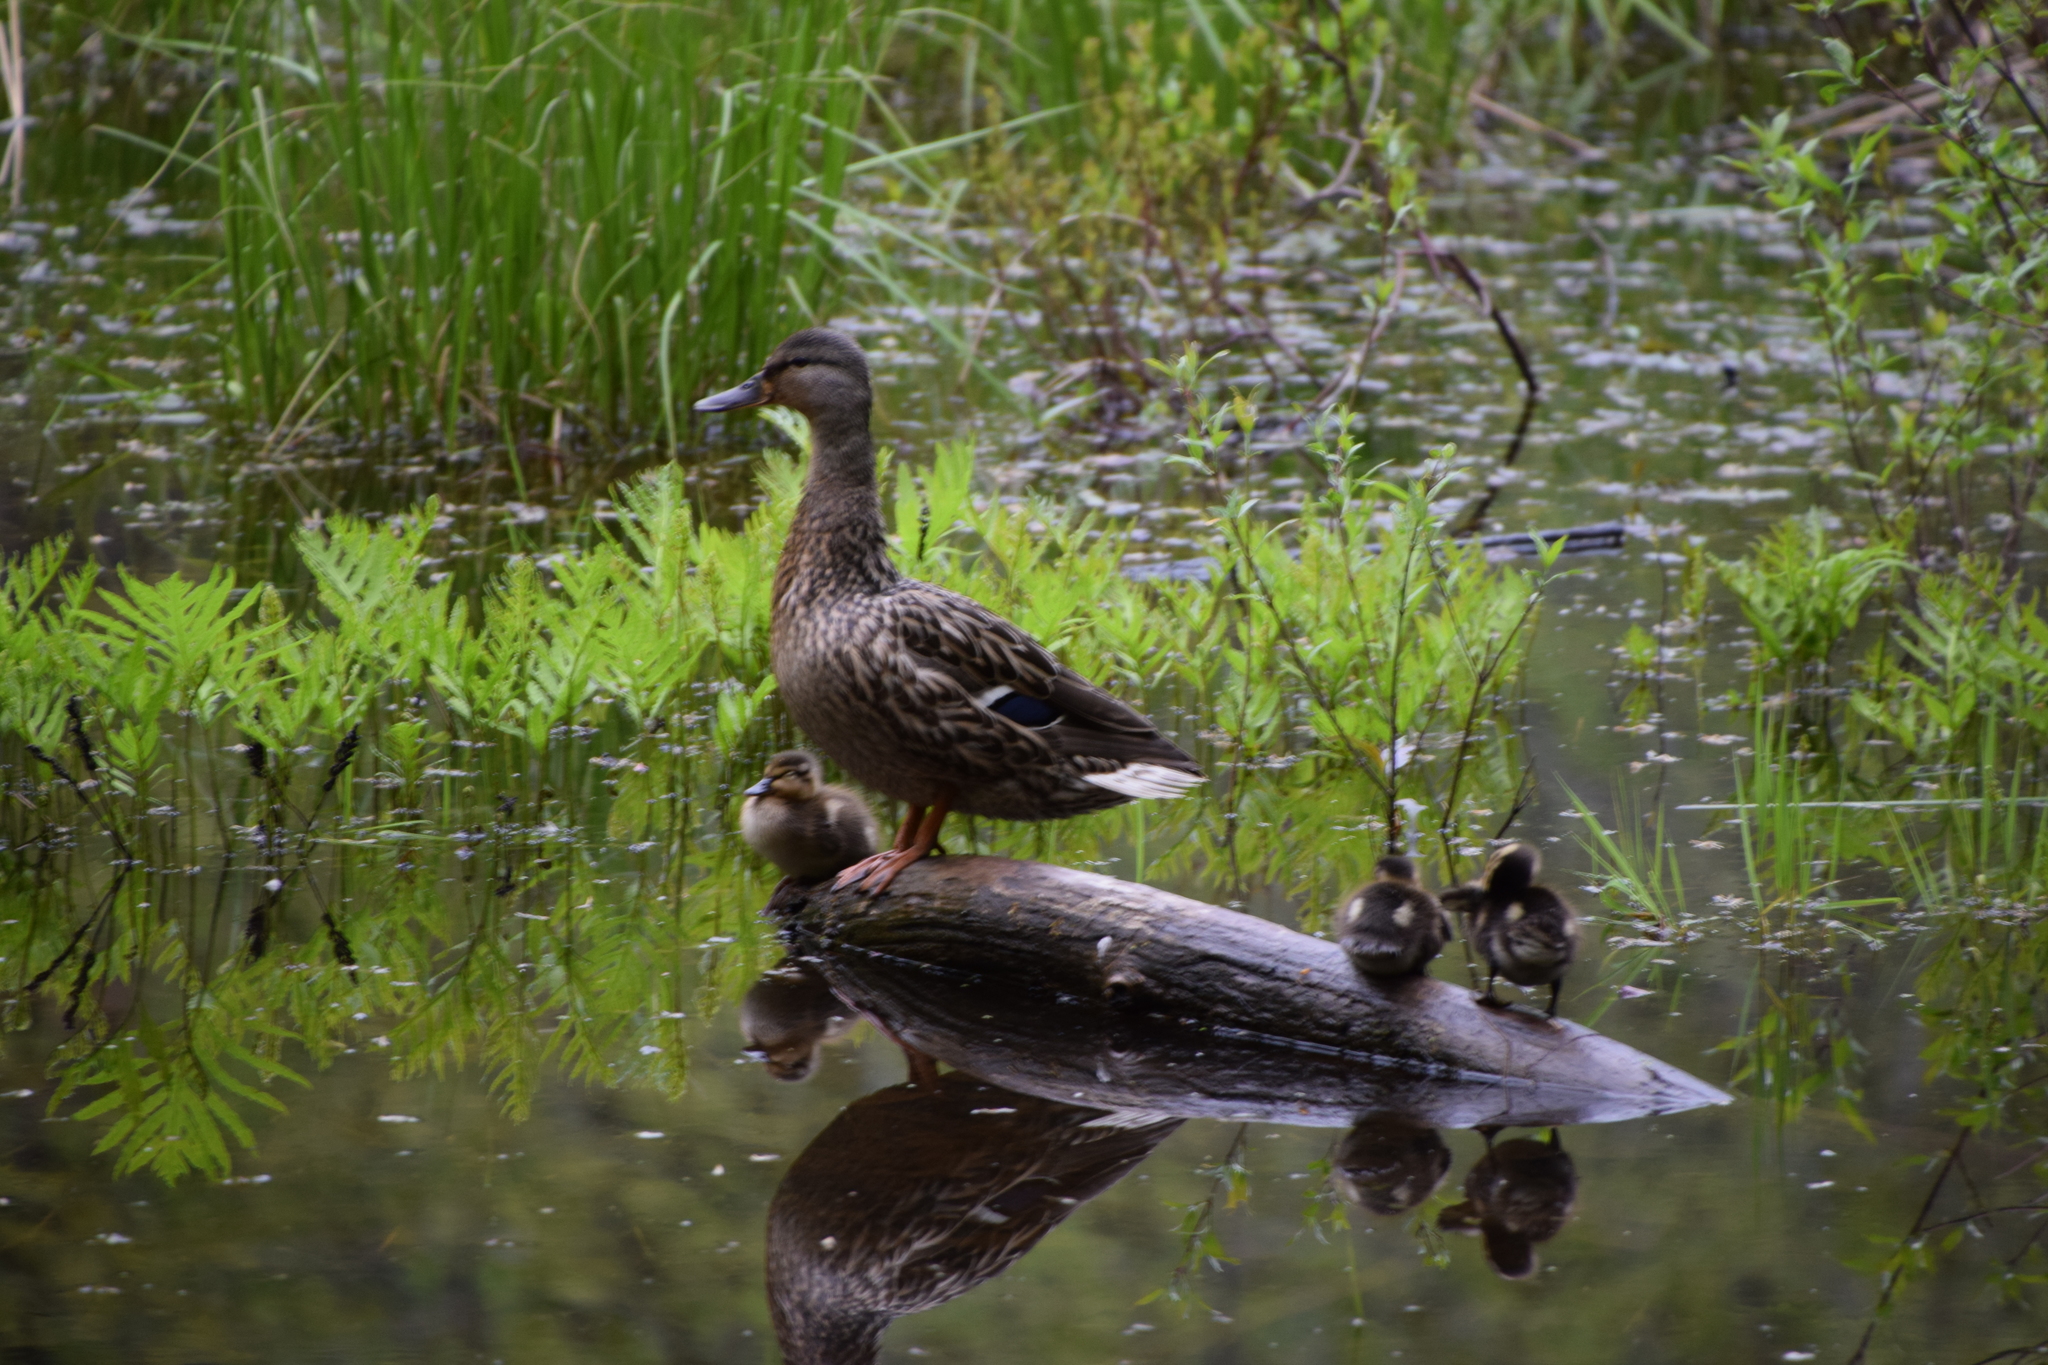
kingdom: Animalia
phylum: Chordata
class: Aves
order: Anseriformes
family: Anatidae
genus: Anas
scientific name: Anas platyrhynchos
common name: Mallard
